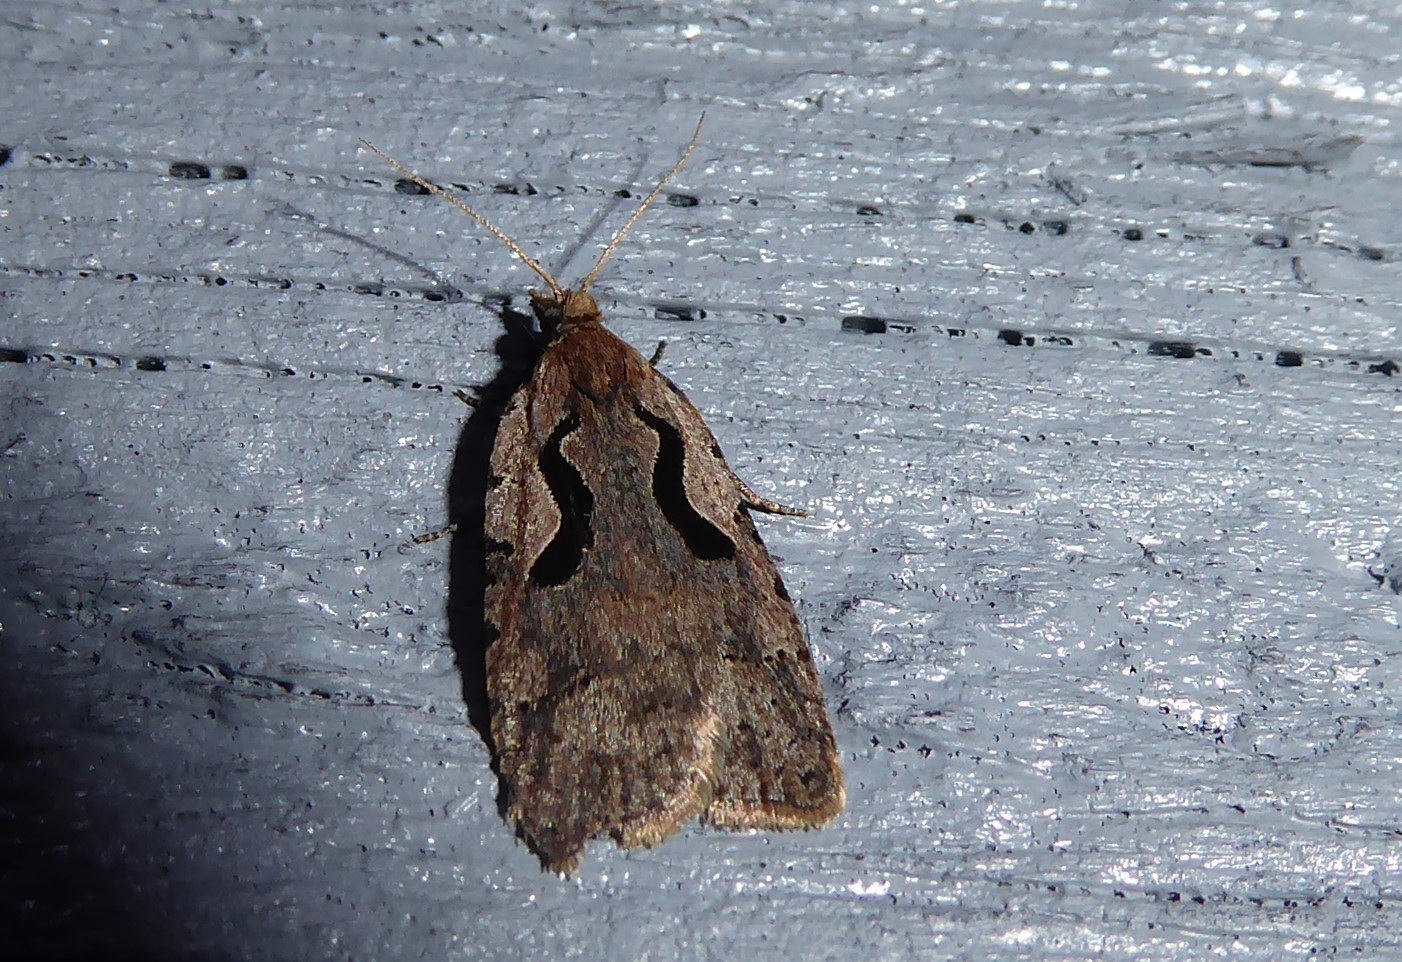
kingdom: Animalia
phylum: Arthropoda
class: Insecta
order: Lepidoptera
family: Tortricidae
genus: Cnephasia
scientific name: Cnephasia jactatana
